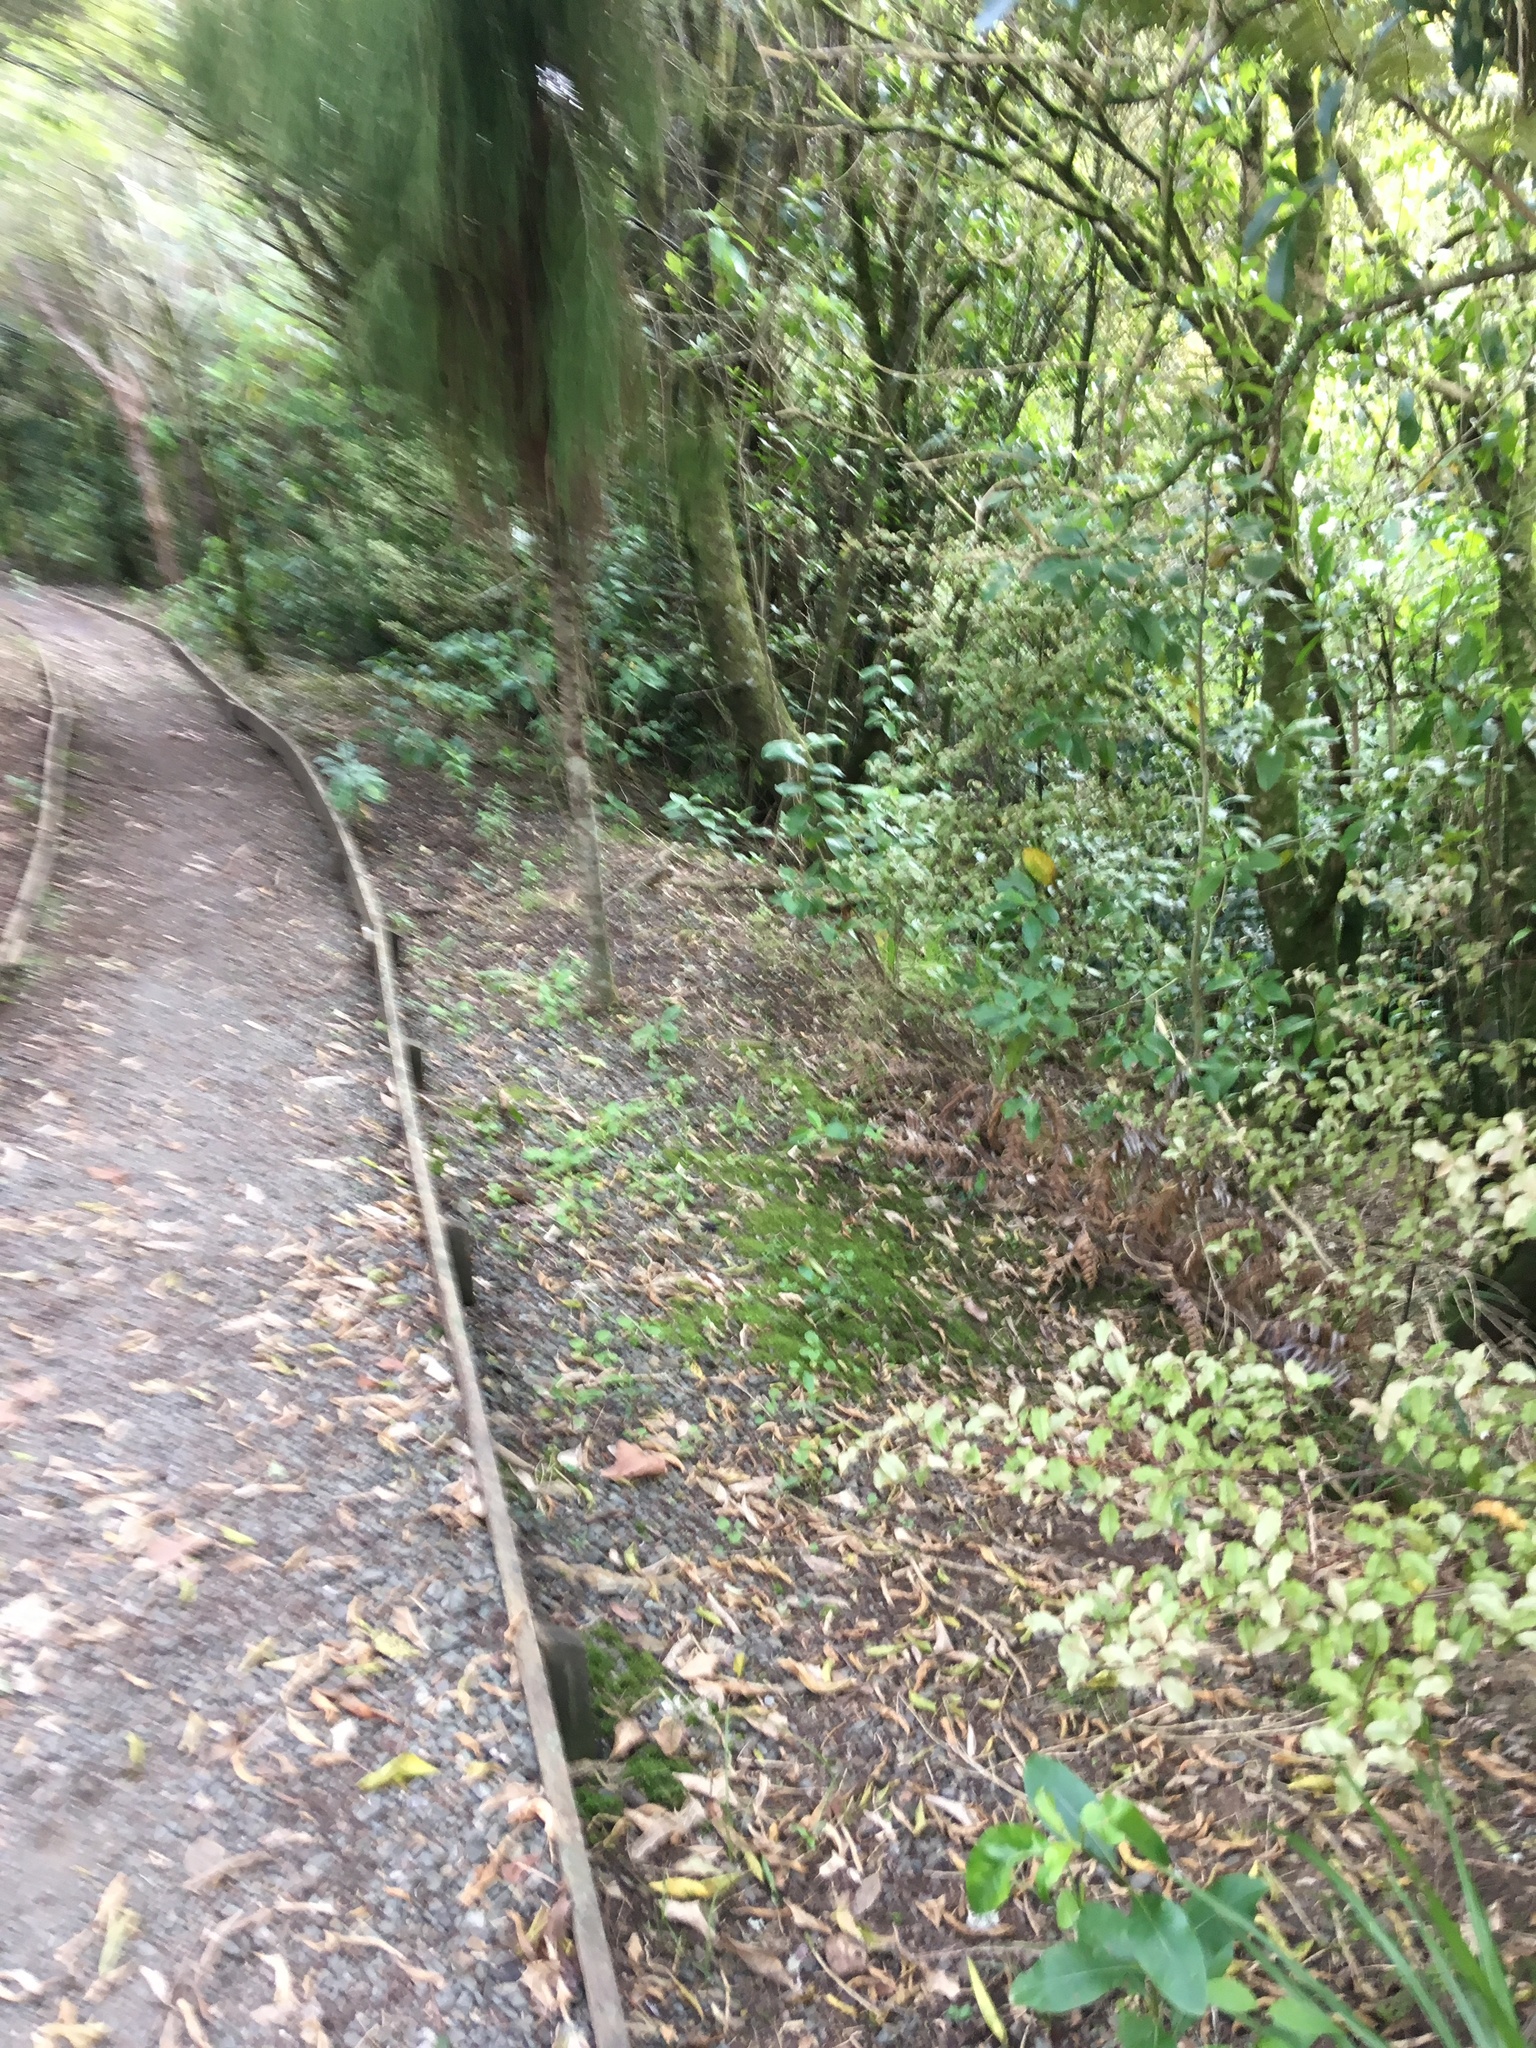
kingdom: Plantae
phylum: Tracheophyta
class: Magnoliopsida
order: Ericales
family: Primulaceae
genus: Myrsine
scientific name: Myrsine australis
